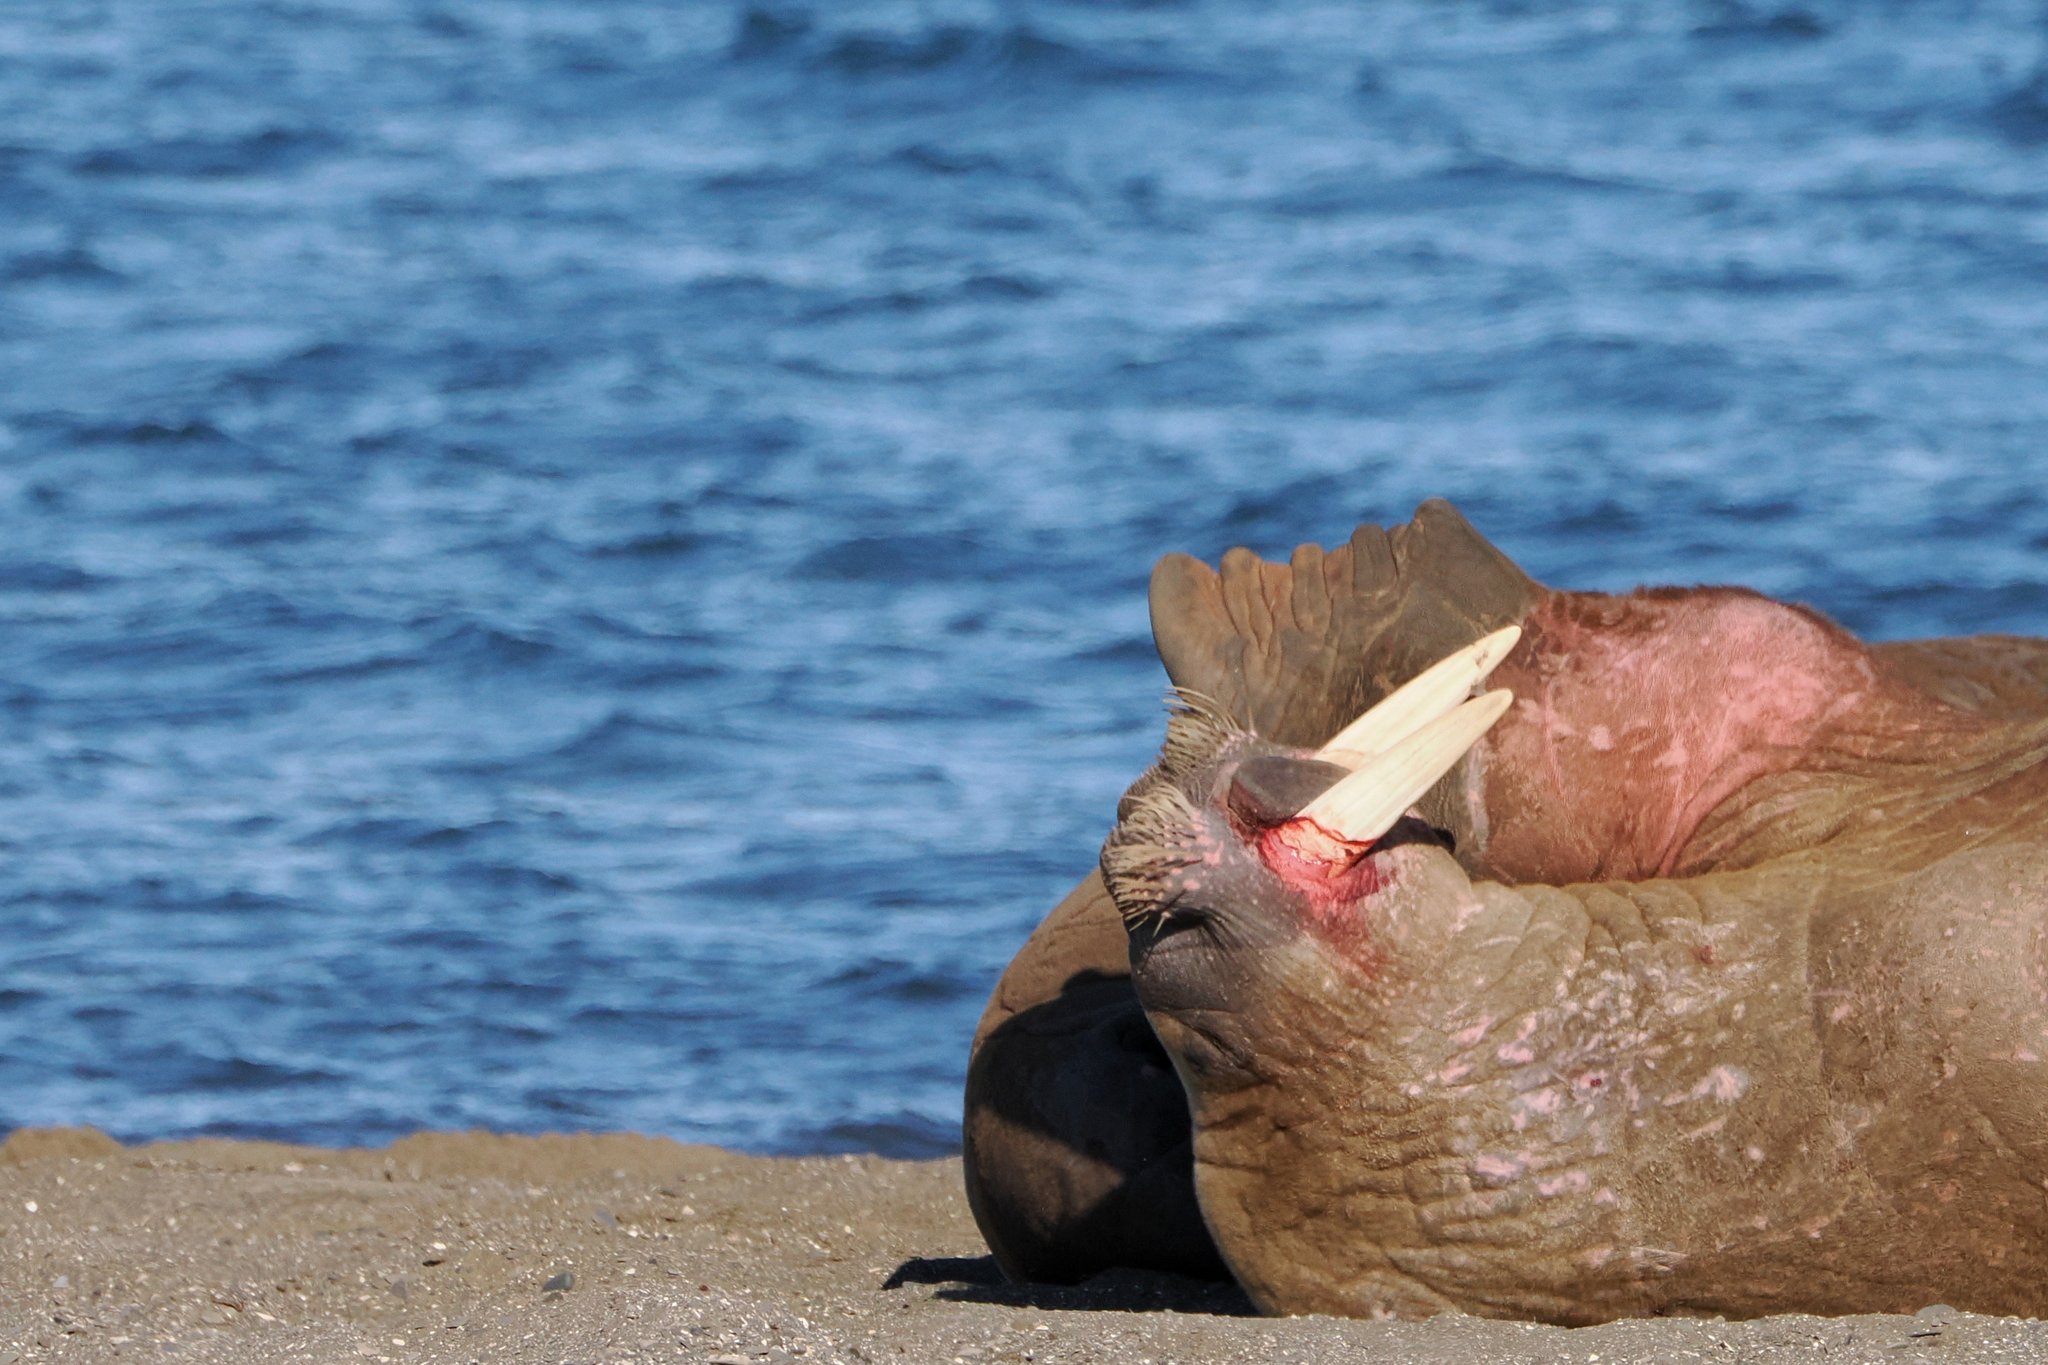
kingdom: Animalia
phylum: Chordata
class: Mammalia
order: Carnivora
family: Odobenidae
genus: Odobenus
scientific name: Odobenus rosmarus
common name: Walrus
